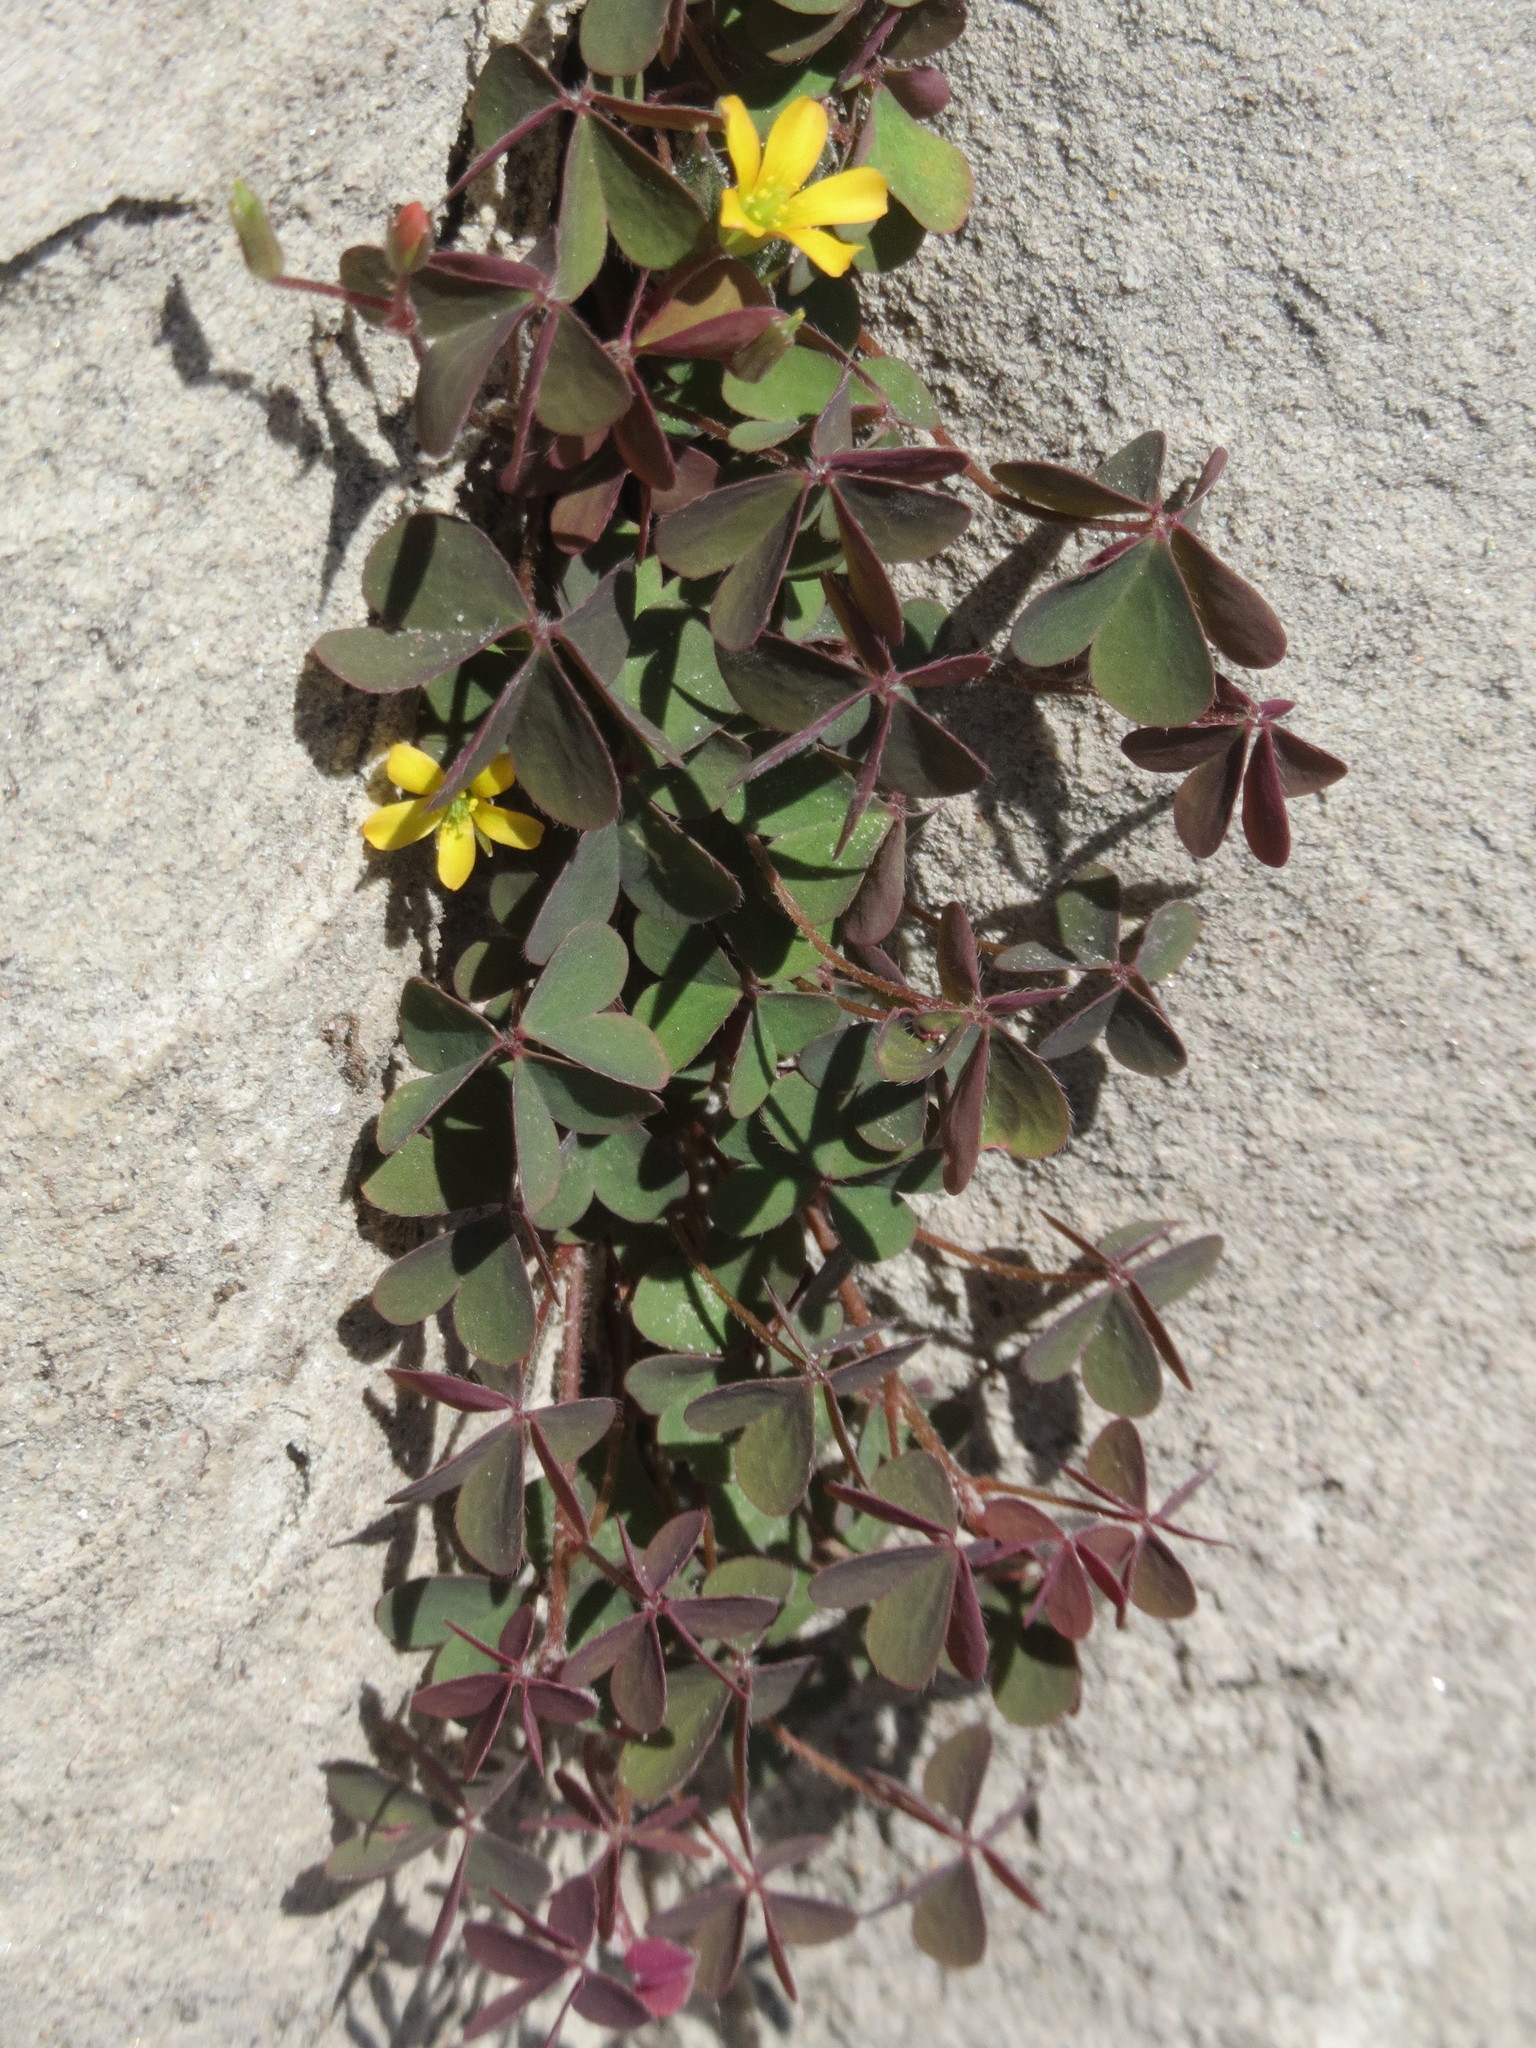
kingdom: Plantae
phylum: Tracheophyta
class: Magnoliopsida
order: Oxalidales
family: Oxalidaceae
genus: Oxalis
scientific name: Oxalis corniculata
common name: Procumbent yellow-sorrel
